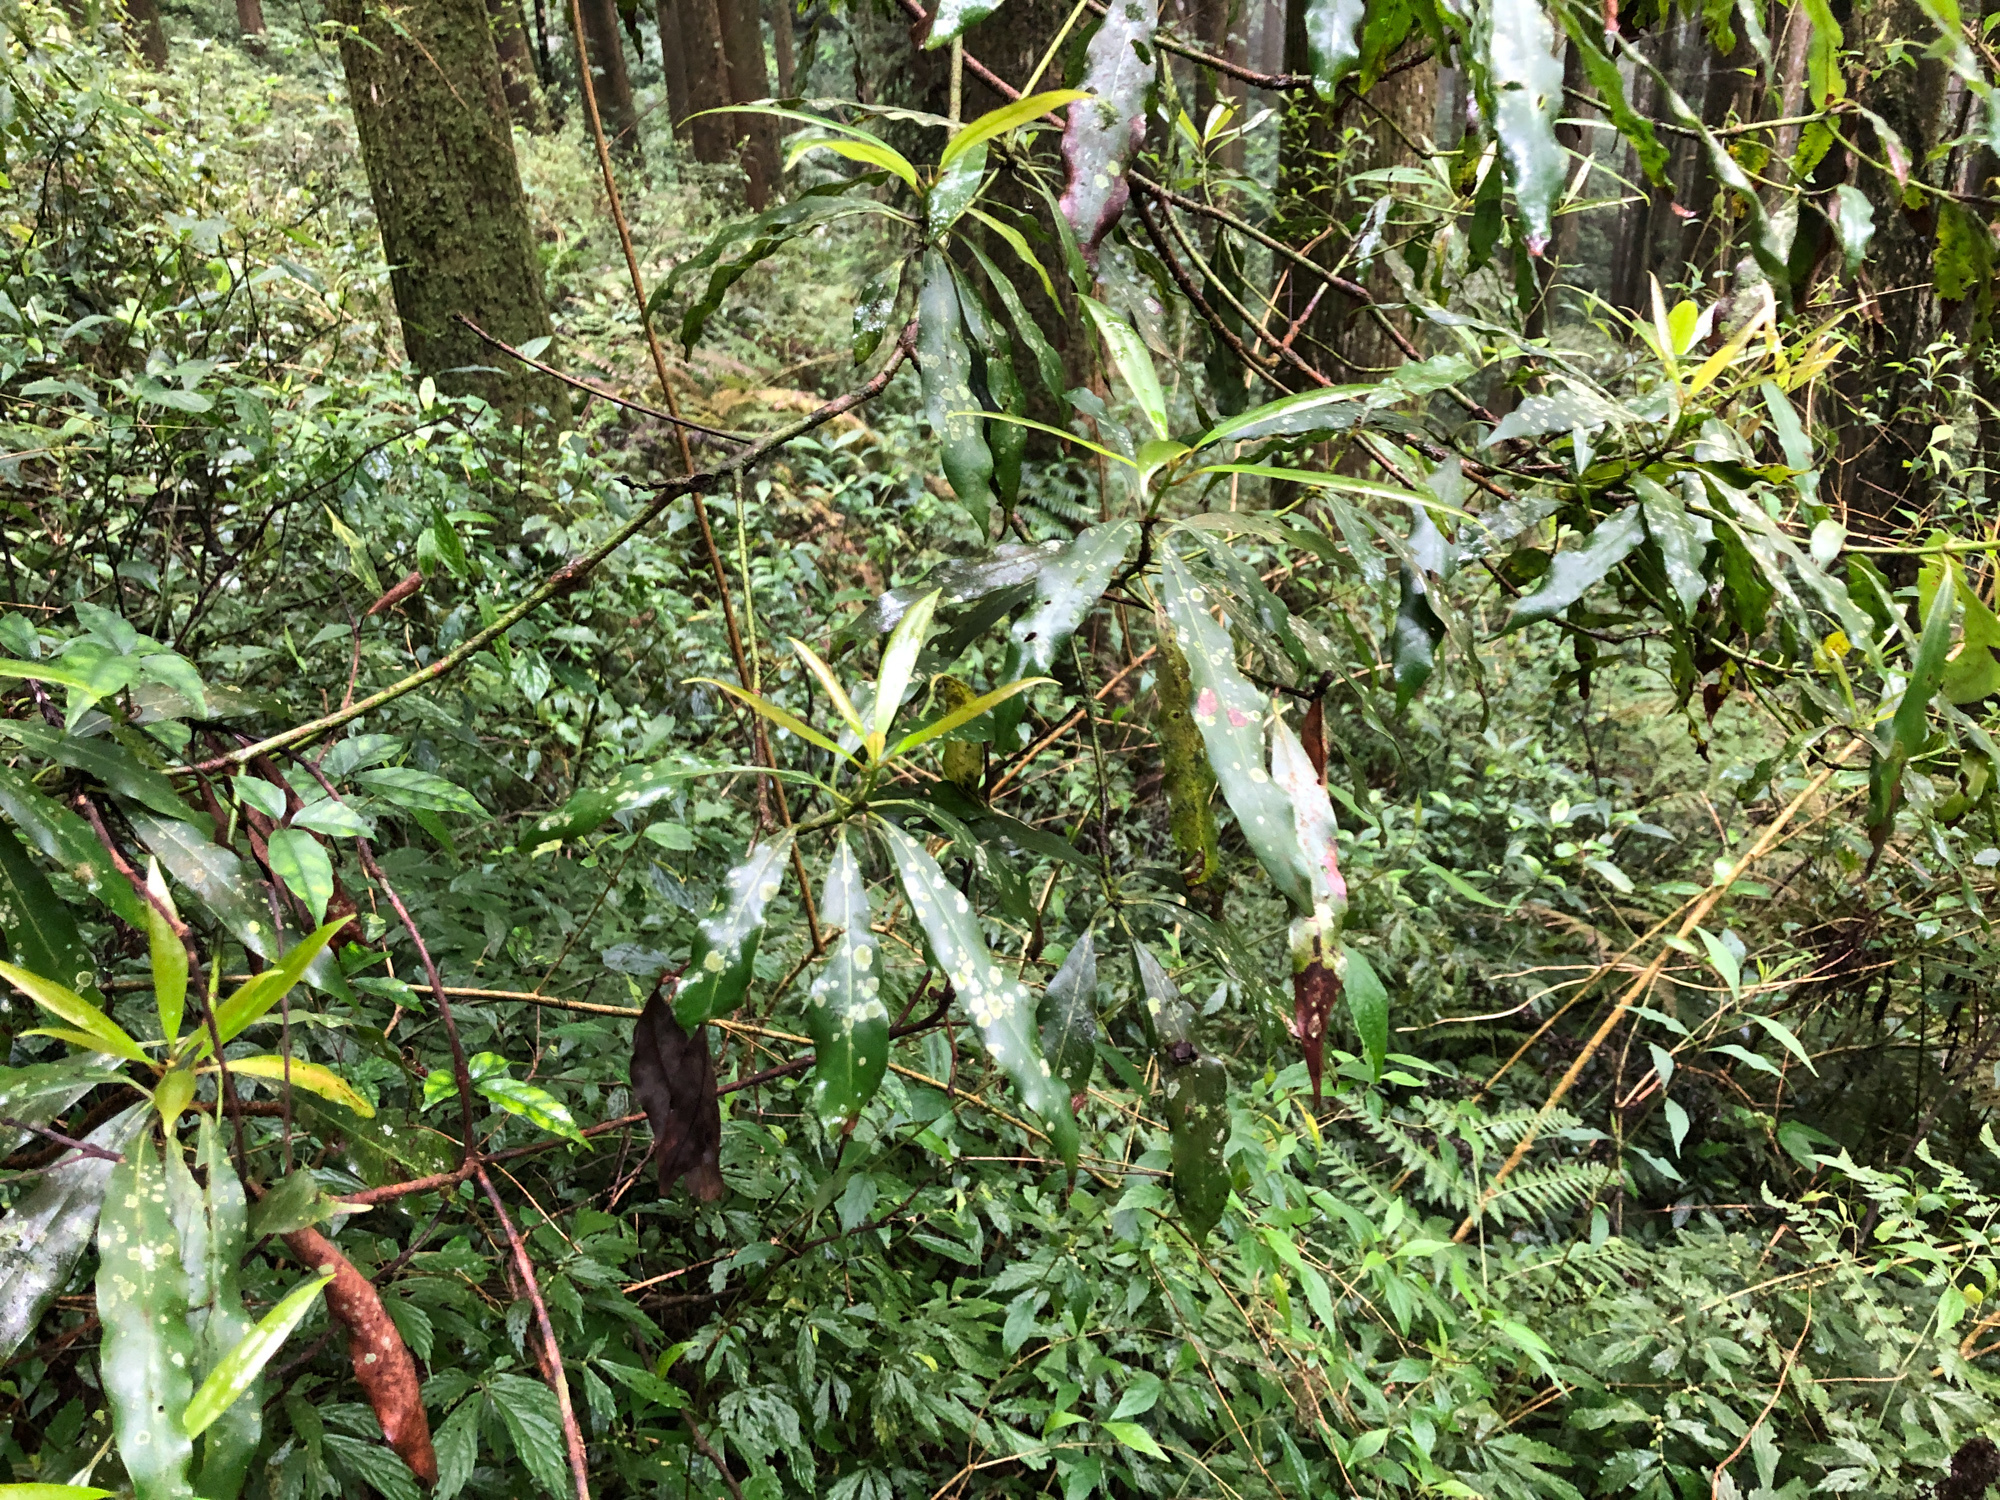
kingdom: Plantae
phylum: Tracheophyta
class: Magnoliopsida
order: Laurales
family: Lauraceae
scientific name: Lauraceae
